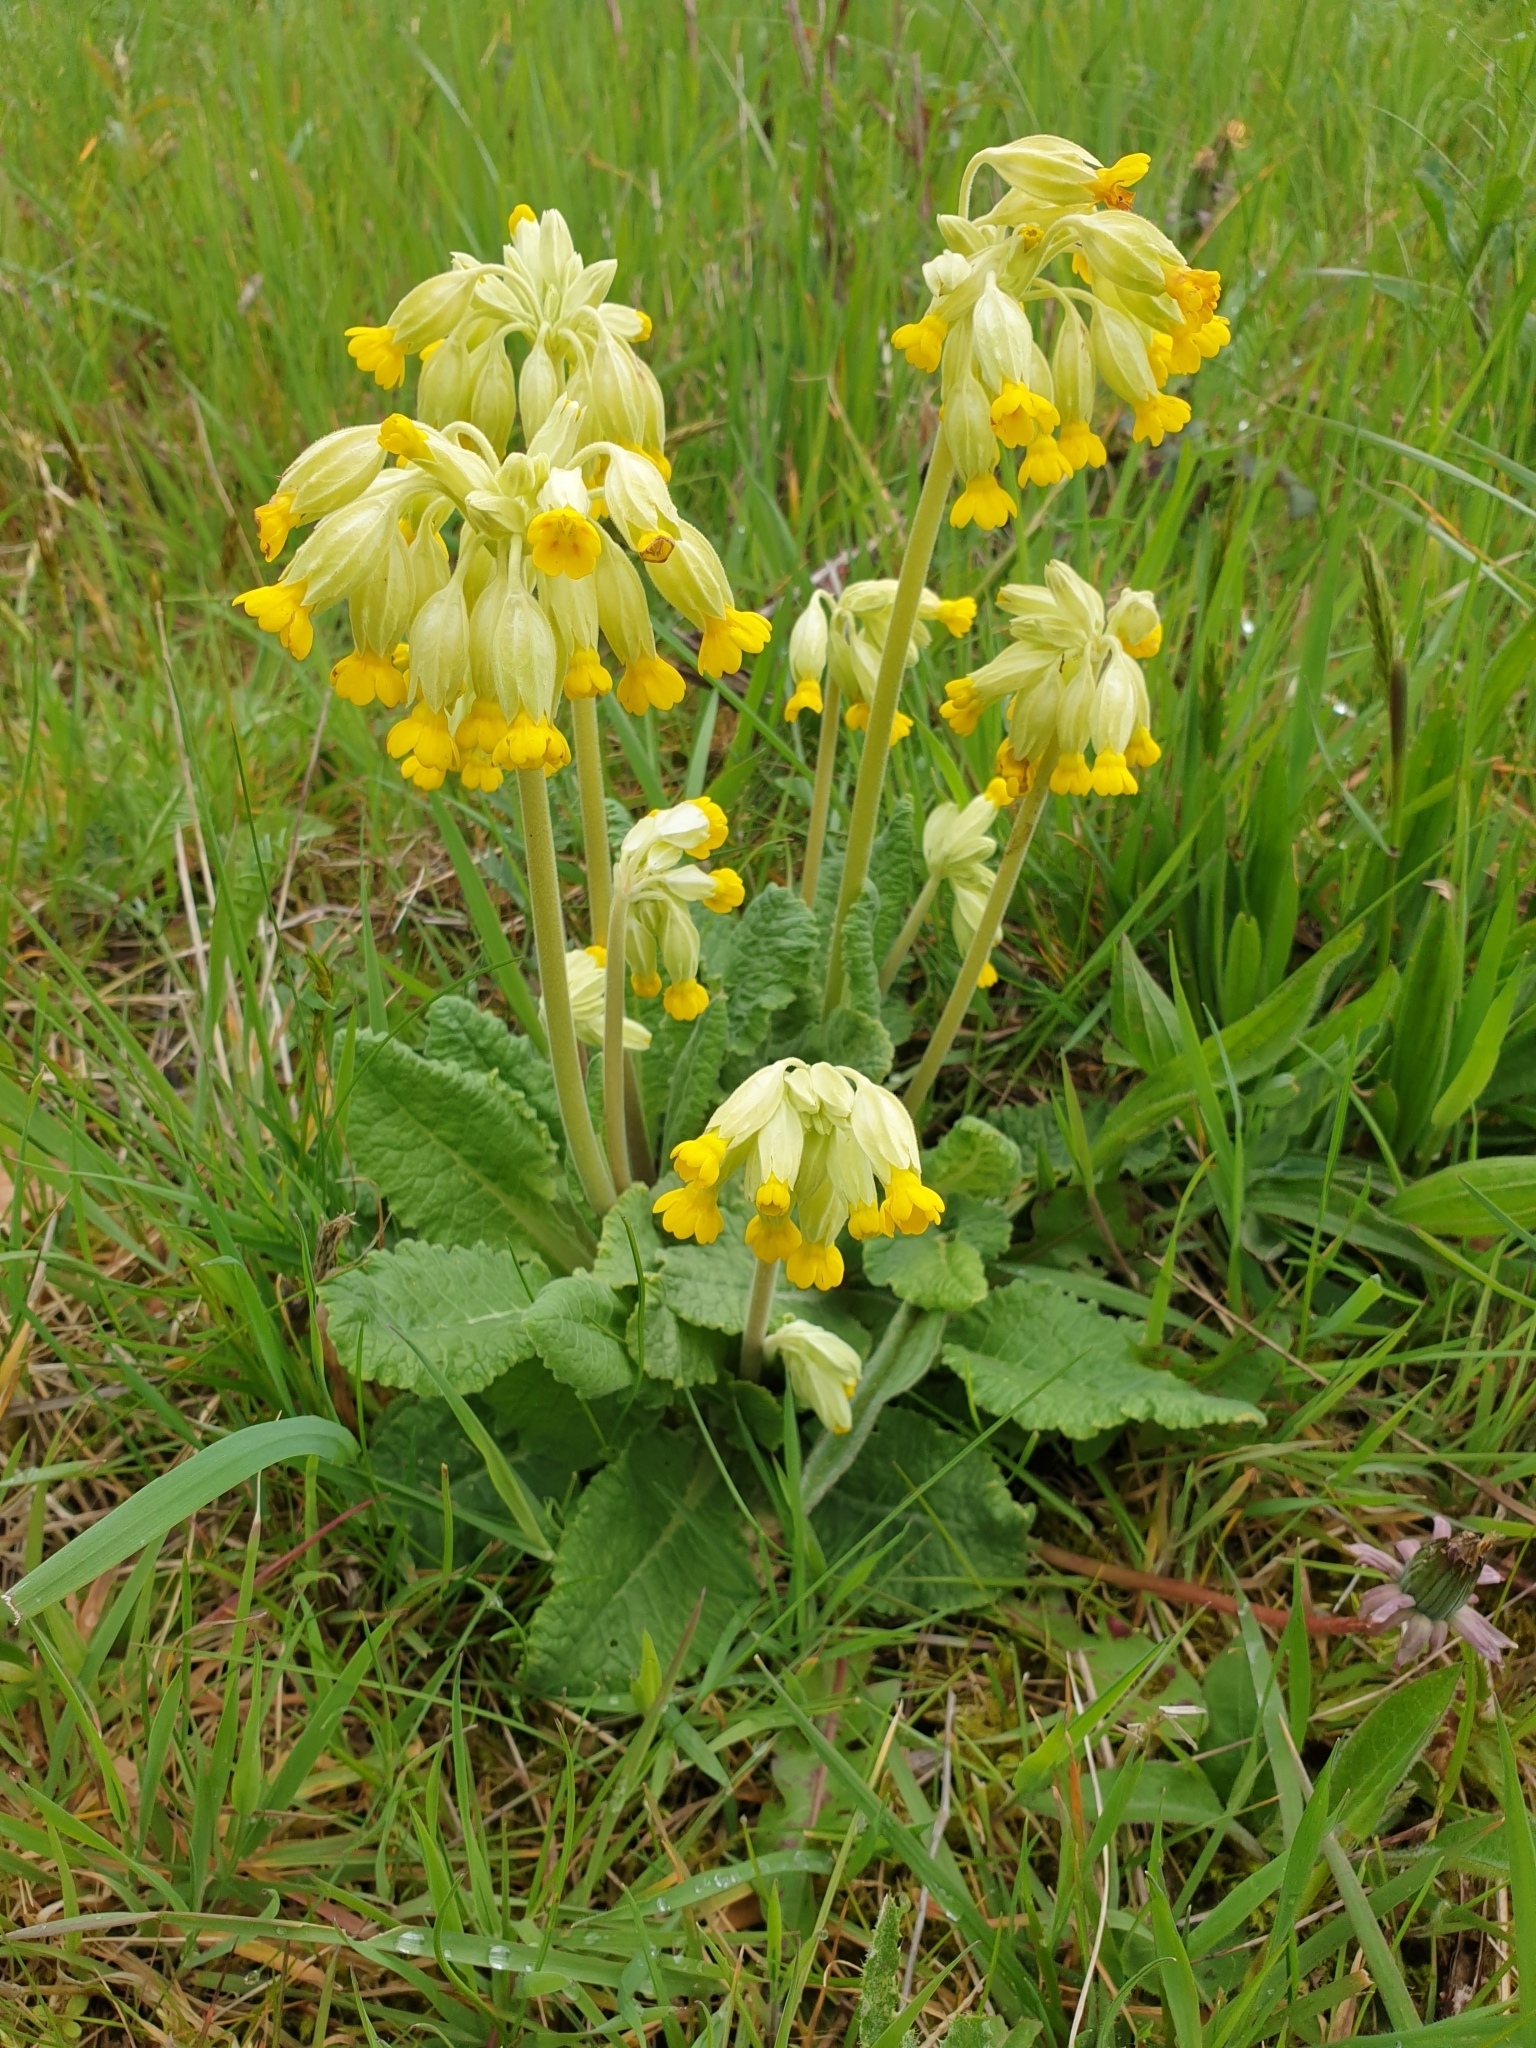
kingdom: Plantae
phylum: Tracheophyta
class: Magnoliopsida
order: Ericales
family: Primulaceae
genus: Primula
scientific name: Primula veris
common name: Cowslip
